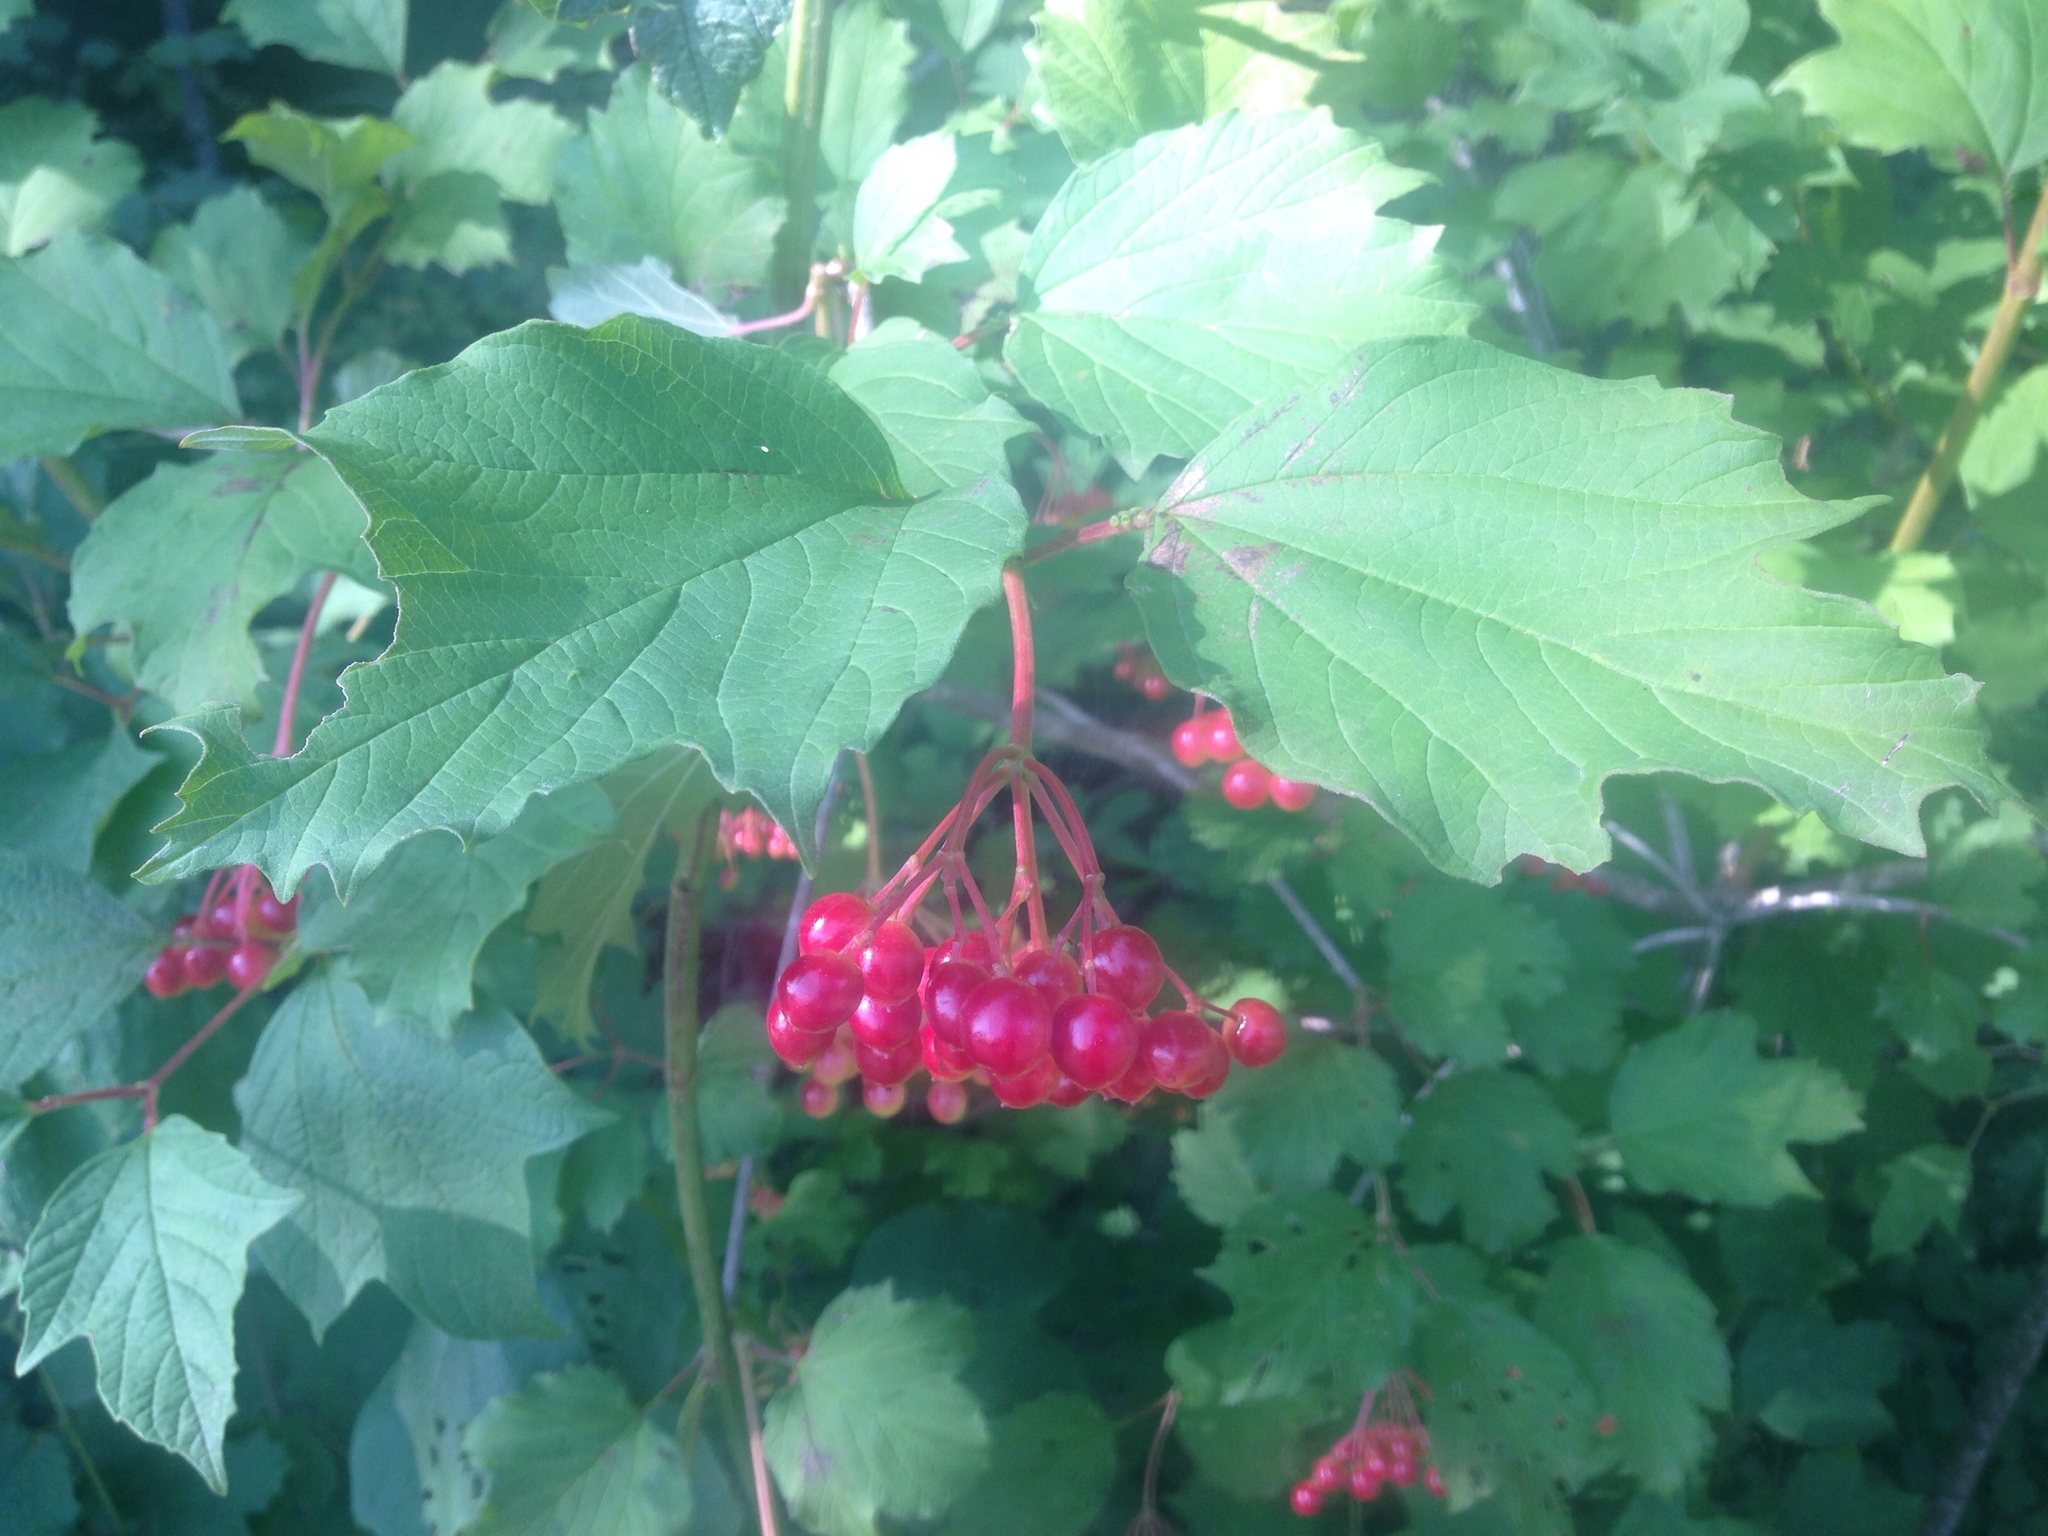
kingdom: Plantae
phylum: Tracheophyta
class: Magnoliopsida
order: Dipsacales
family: Viburnaceae
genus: Viburnum
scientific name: Viburnum opulus
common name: Guelder-rose
